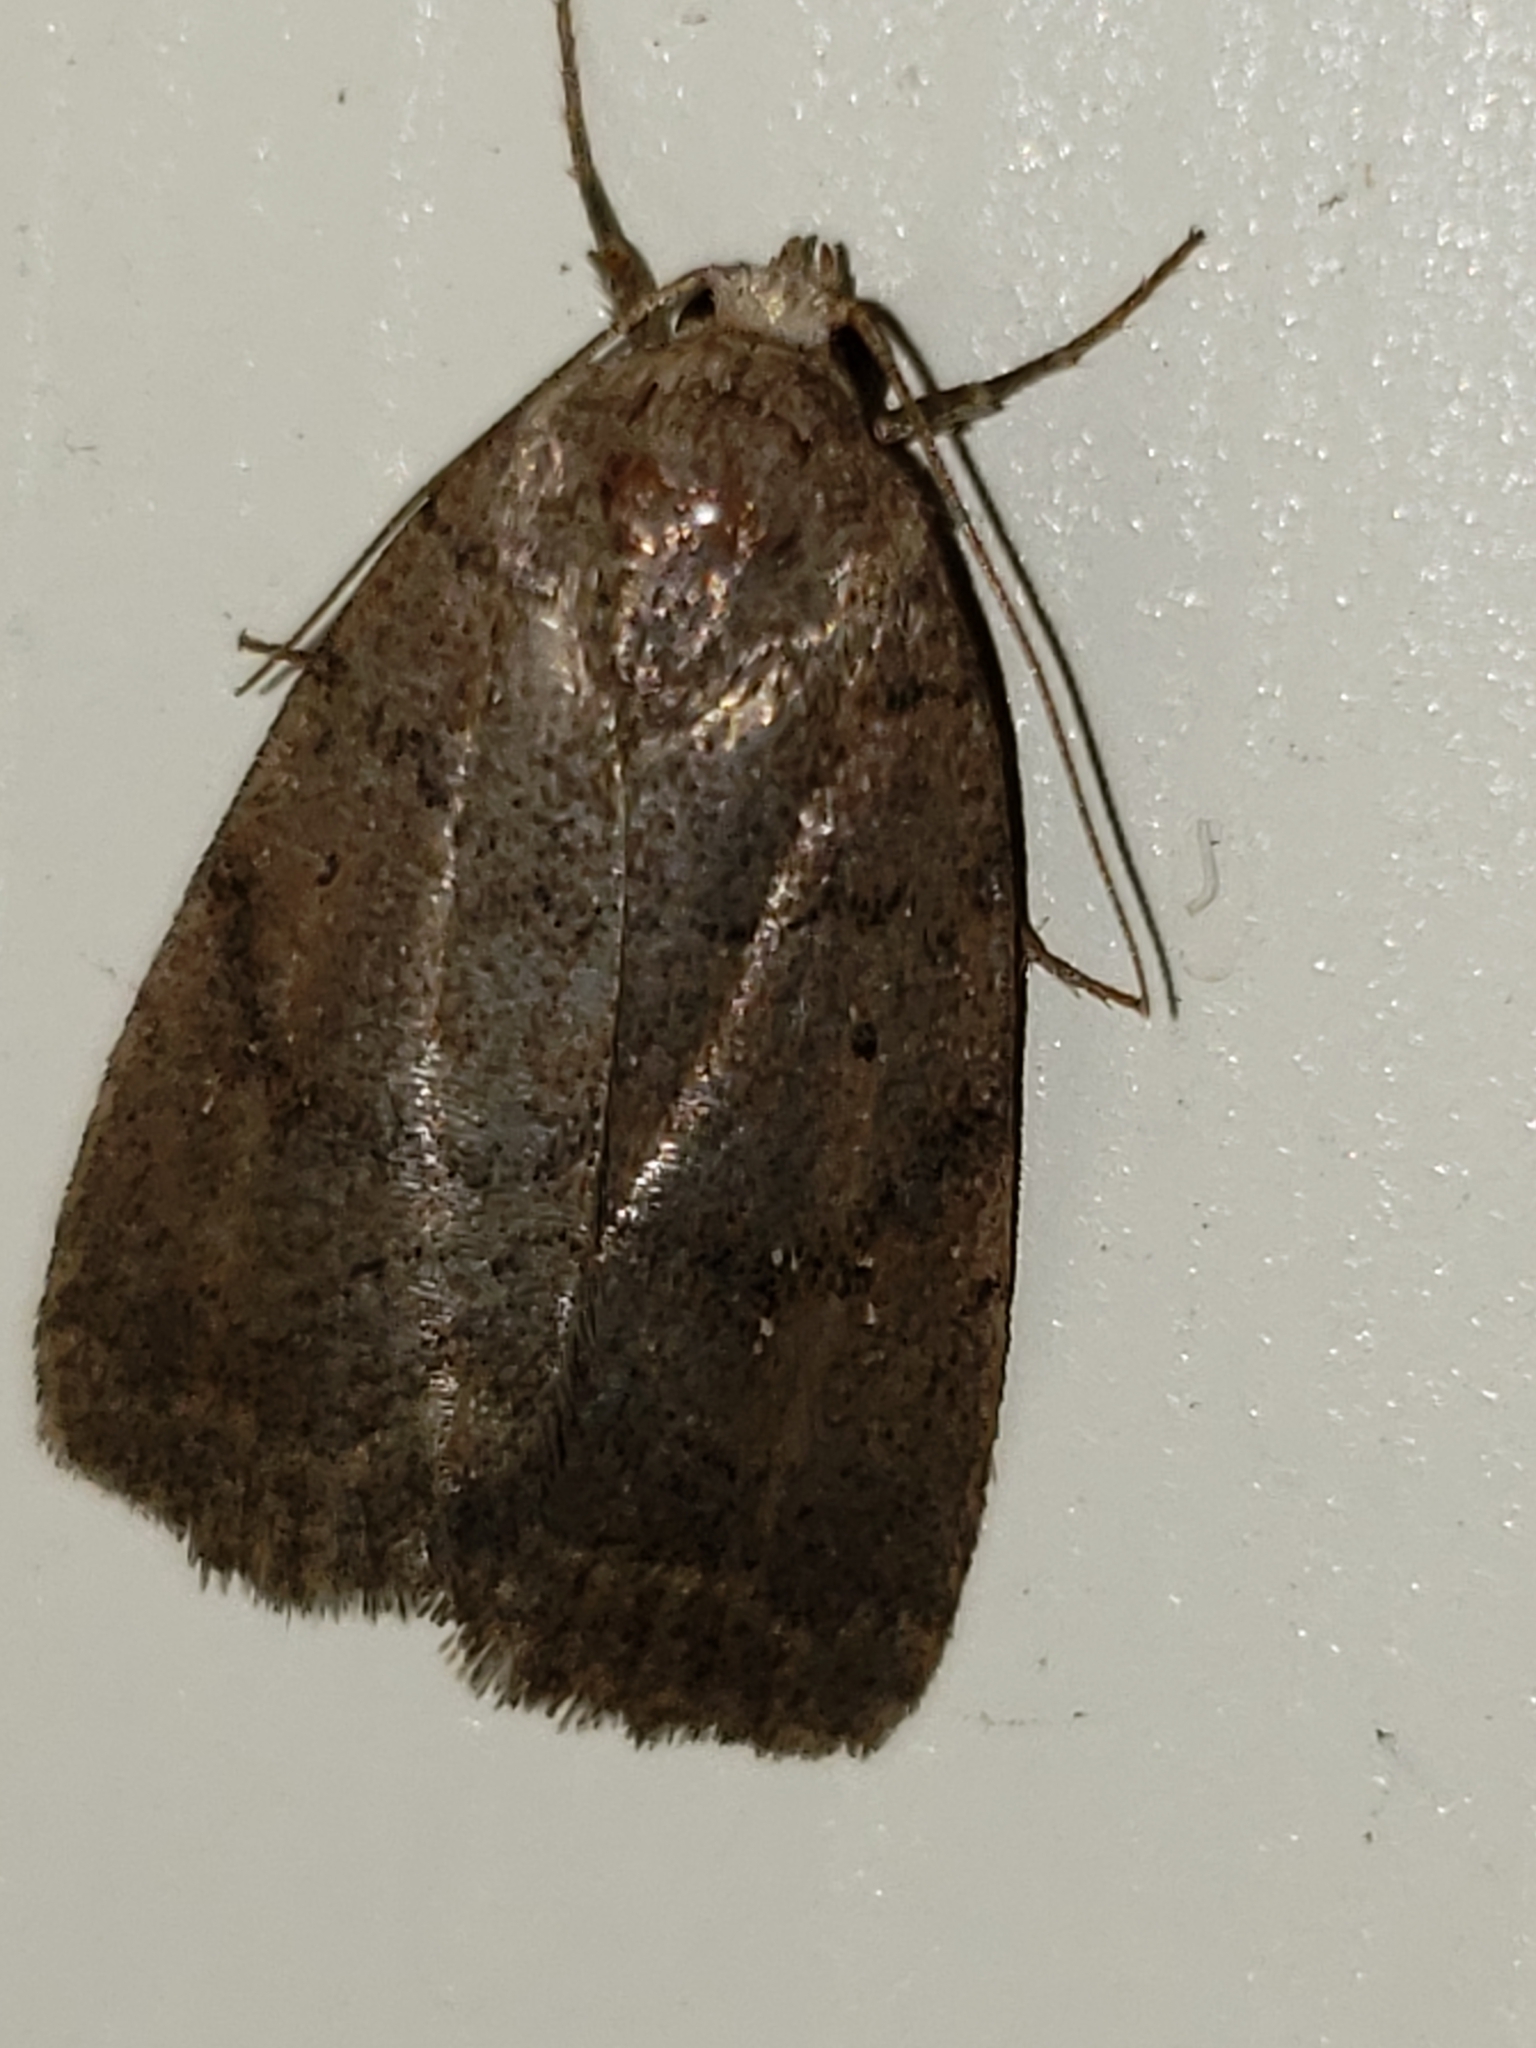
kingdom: Animalia
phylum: Arthropoda
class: Insecta
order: Lepidoptera
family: Noctuidae
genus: Athetis
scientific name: Athetis tarda
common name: Slowpoke moth
